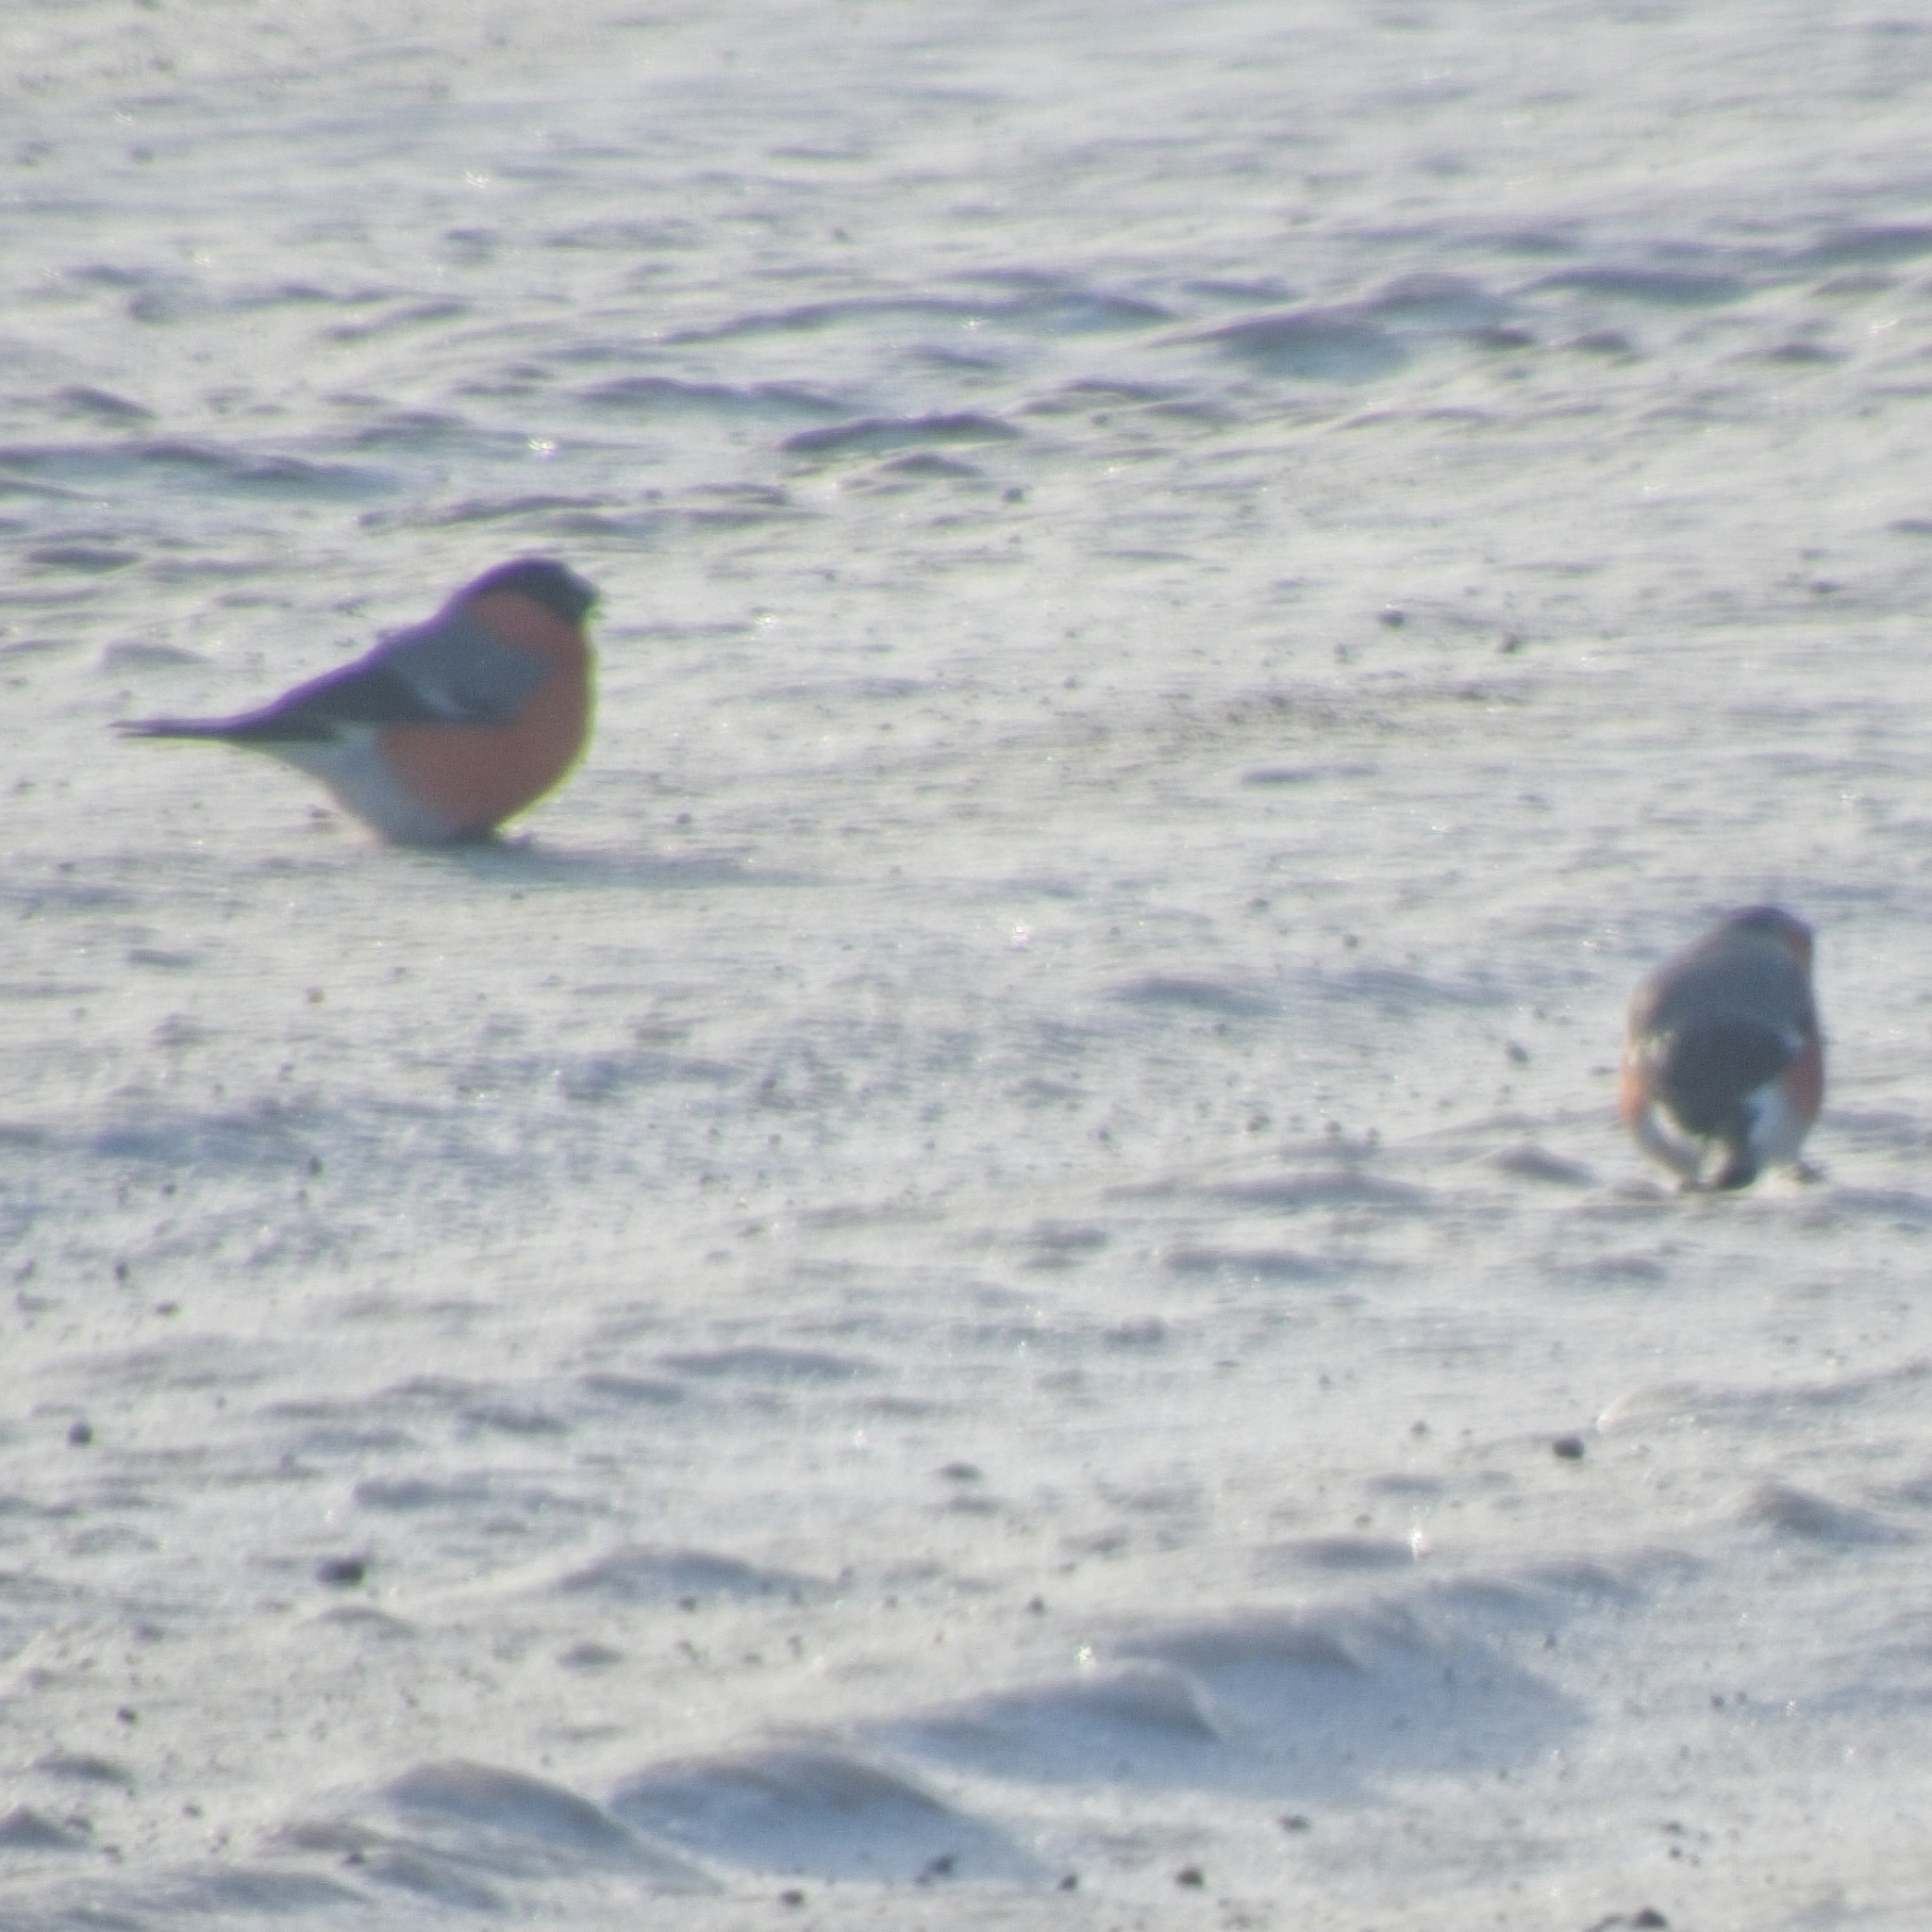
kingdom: Animalia
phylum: Chordata
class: Aves
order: Passeriformes
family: Fringillidae
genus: Pyrrhula
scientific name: Pyrrhula pyrrhula
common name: Eurasian bullfinch
